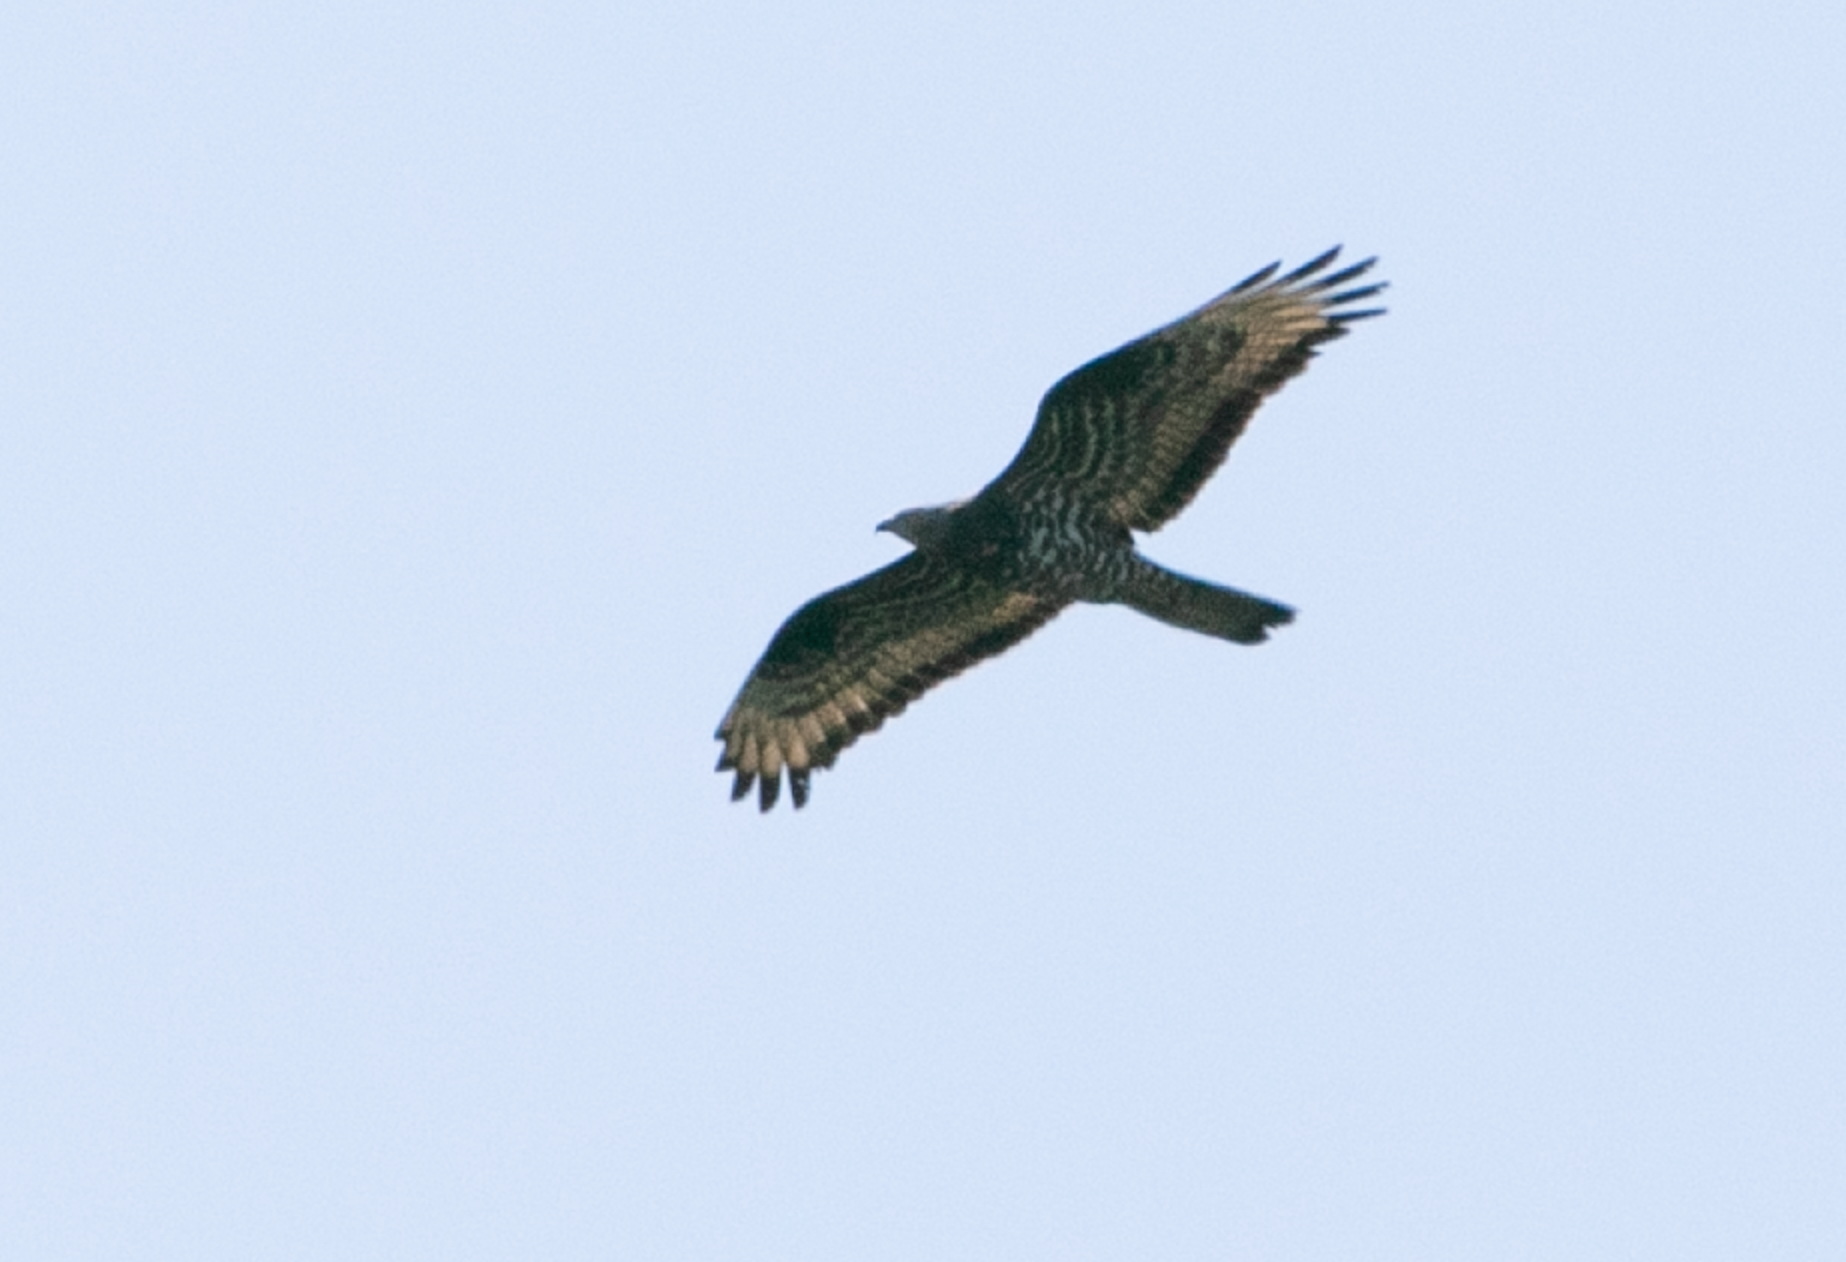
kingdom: Animalia
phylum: Chordata
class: Aves
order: Accipitriformes
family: Accipitridae
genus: Pernis
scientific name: Pernis apivorus
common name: European honey buzzard
